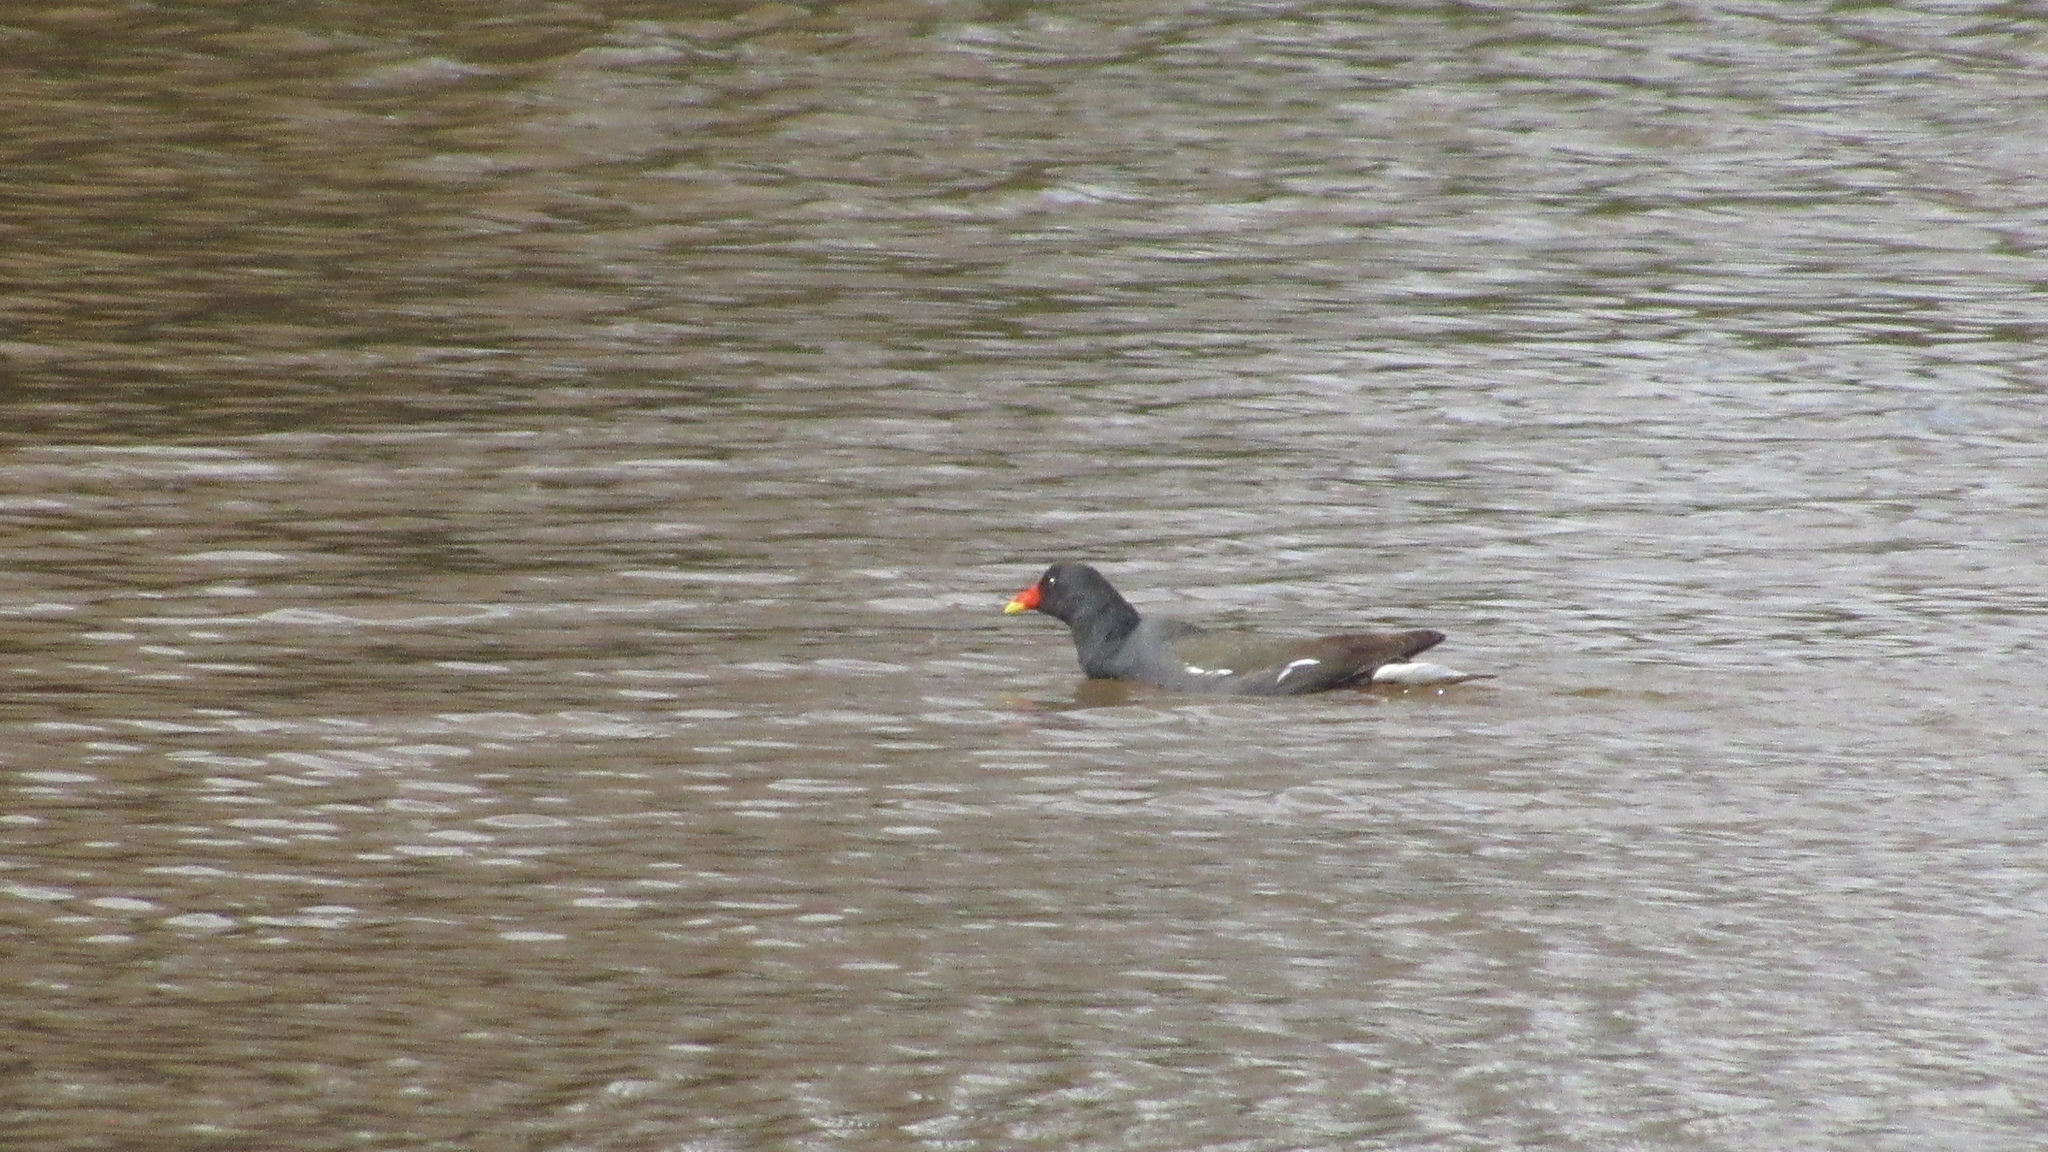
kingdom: Animalia
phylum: Chordata
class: Aves
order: Gruiformes
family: Rallidae
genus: Gallinula
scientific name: Gallinula chloropus
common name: Common moorhen
